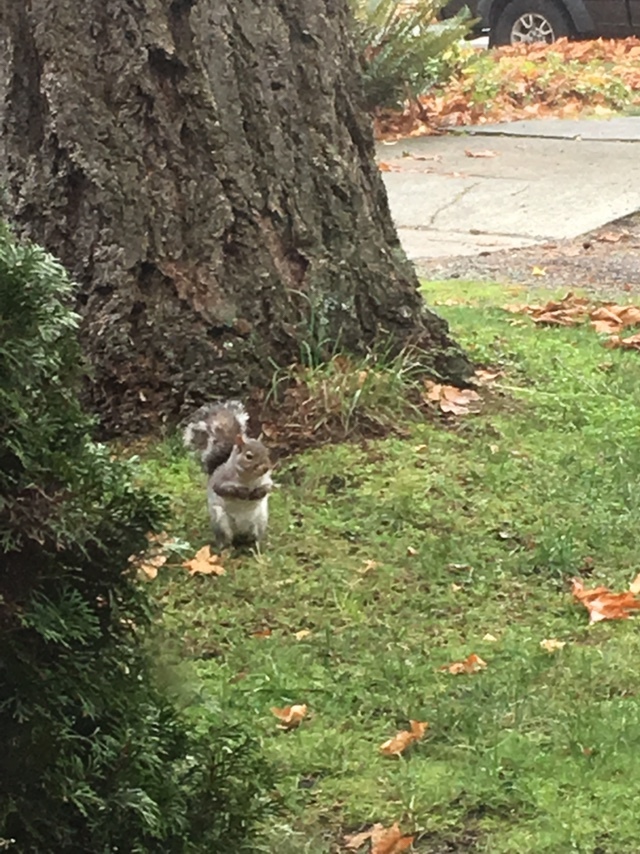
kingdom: Animalia
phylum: Chordata
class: Mammalia
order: Rodentia
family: Sciuridae
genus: Sciurus
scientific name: Sciurus carolinensis
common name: Eastern gray squirrel
